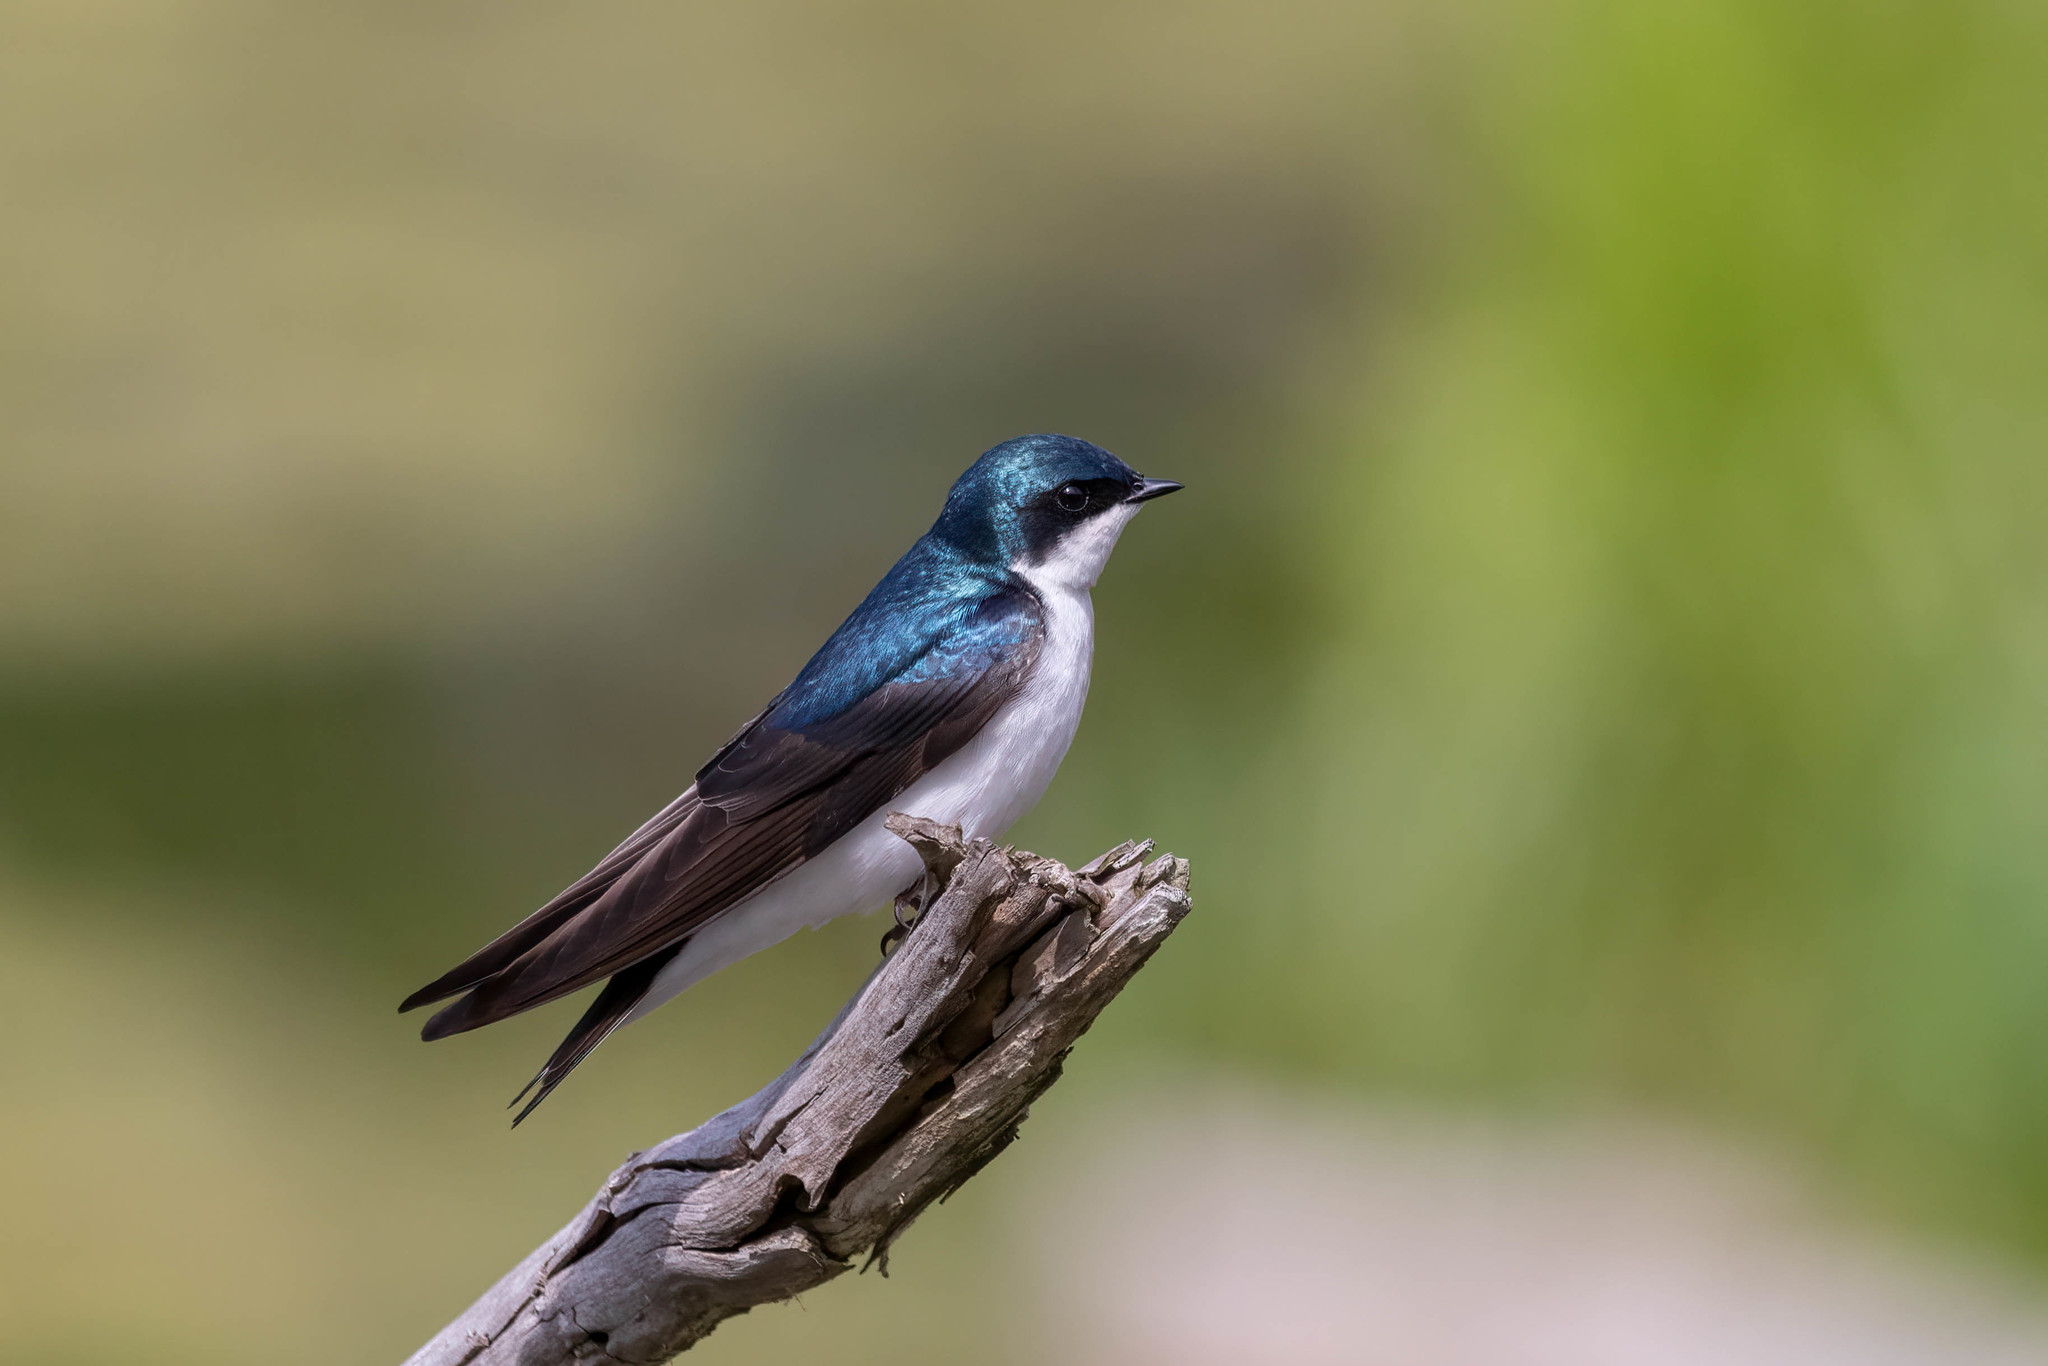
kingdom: Animalia
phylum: Chordata
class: Aves
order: Passeriformes
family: Hirundinidae
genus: Tachycineta
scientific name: Tachycineta bicolor
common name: Tree swallow
